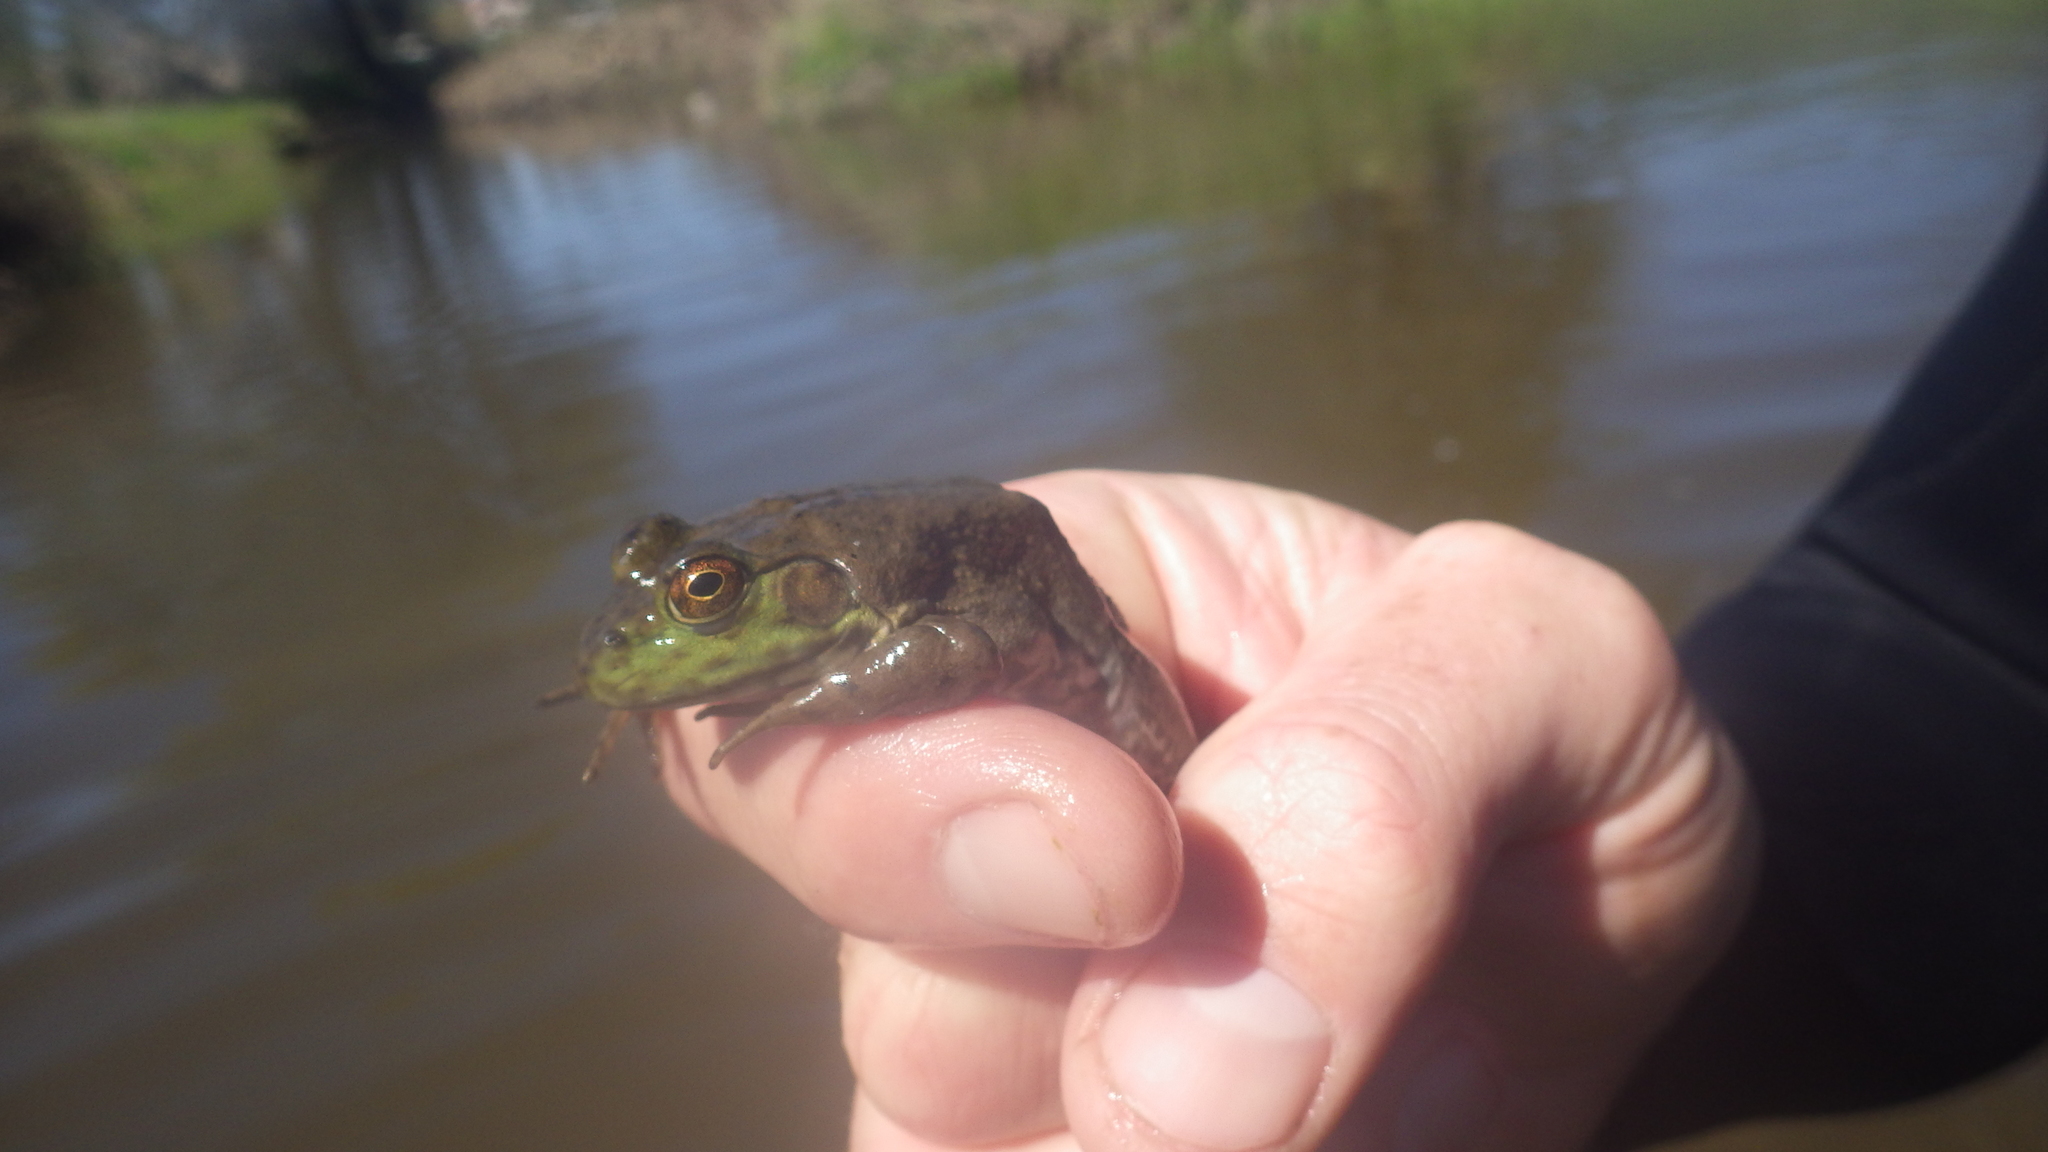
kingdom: Animalia
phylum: Chordata
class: Amphibia
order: Anura
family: Ranidae
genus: Lithobates
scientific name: Lithobates catesbeianus
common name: American bullfrog
